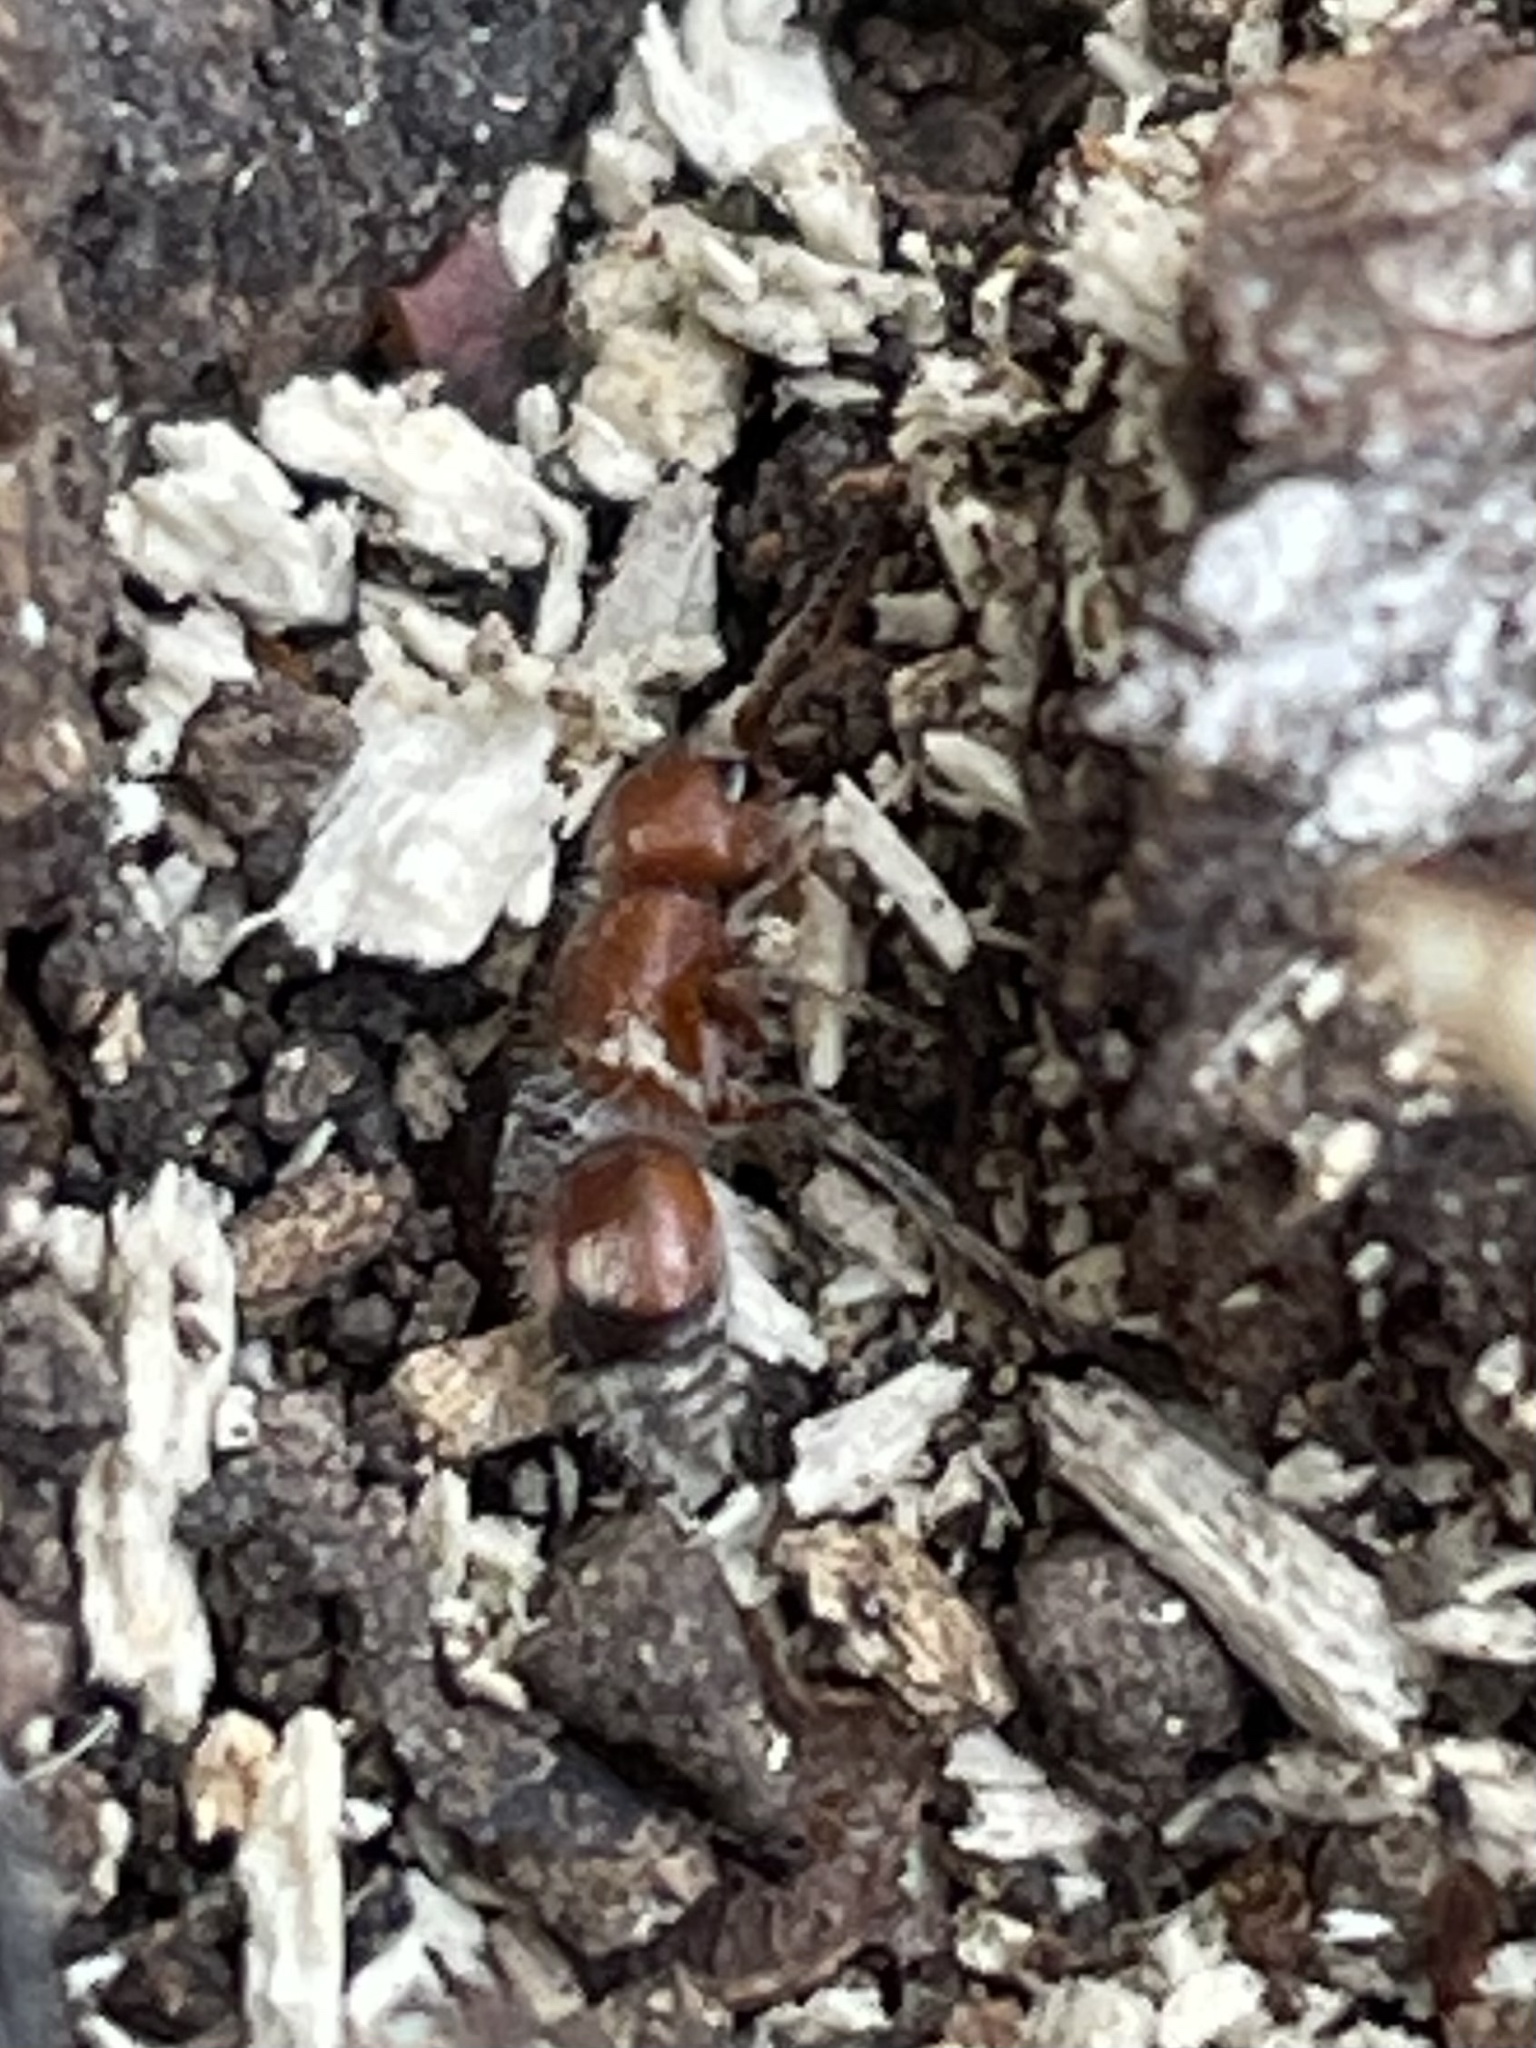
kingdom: Animalia
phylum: Arthropoda
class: Insecta
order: Hymenoptera
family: Mutillidae
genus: Pseudomethoca
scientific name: Pseudomethoca
